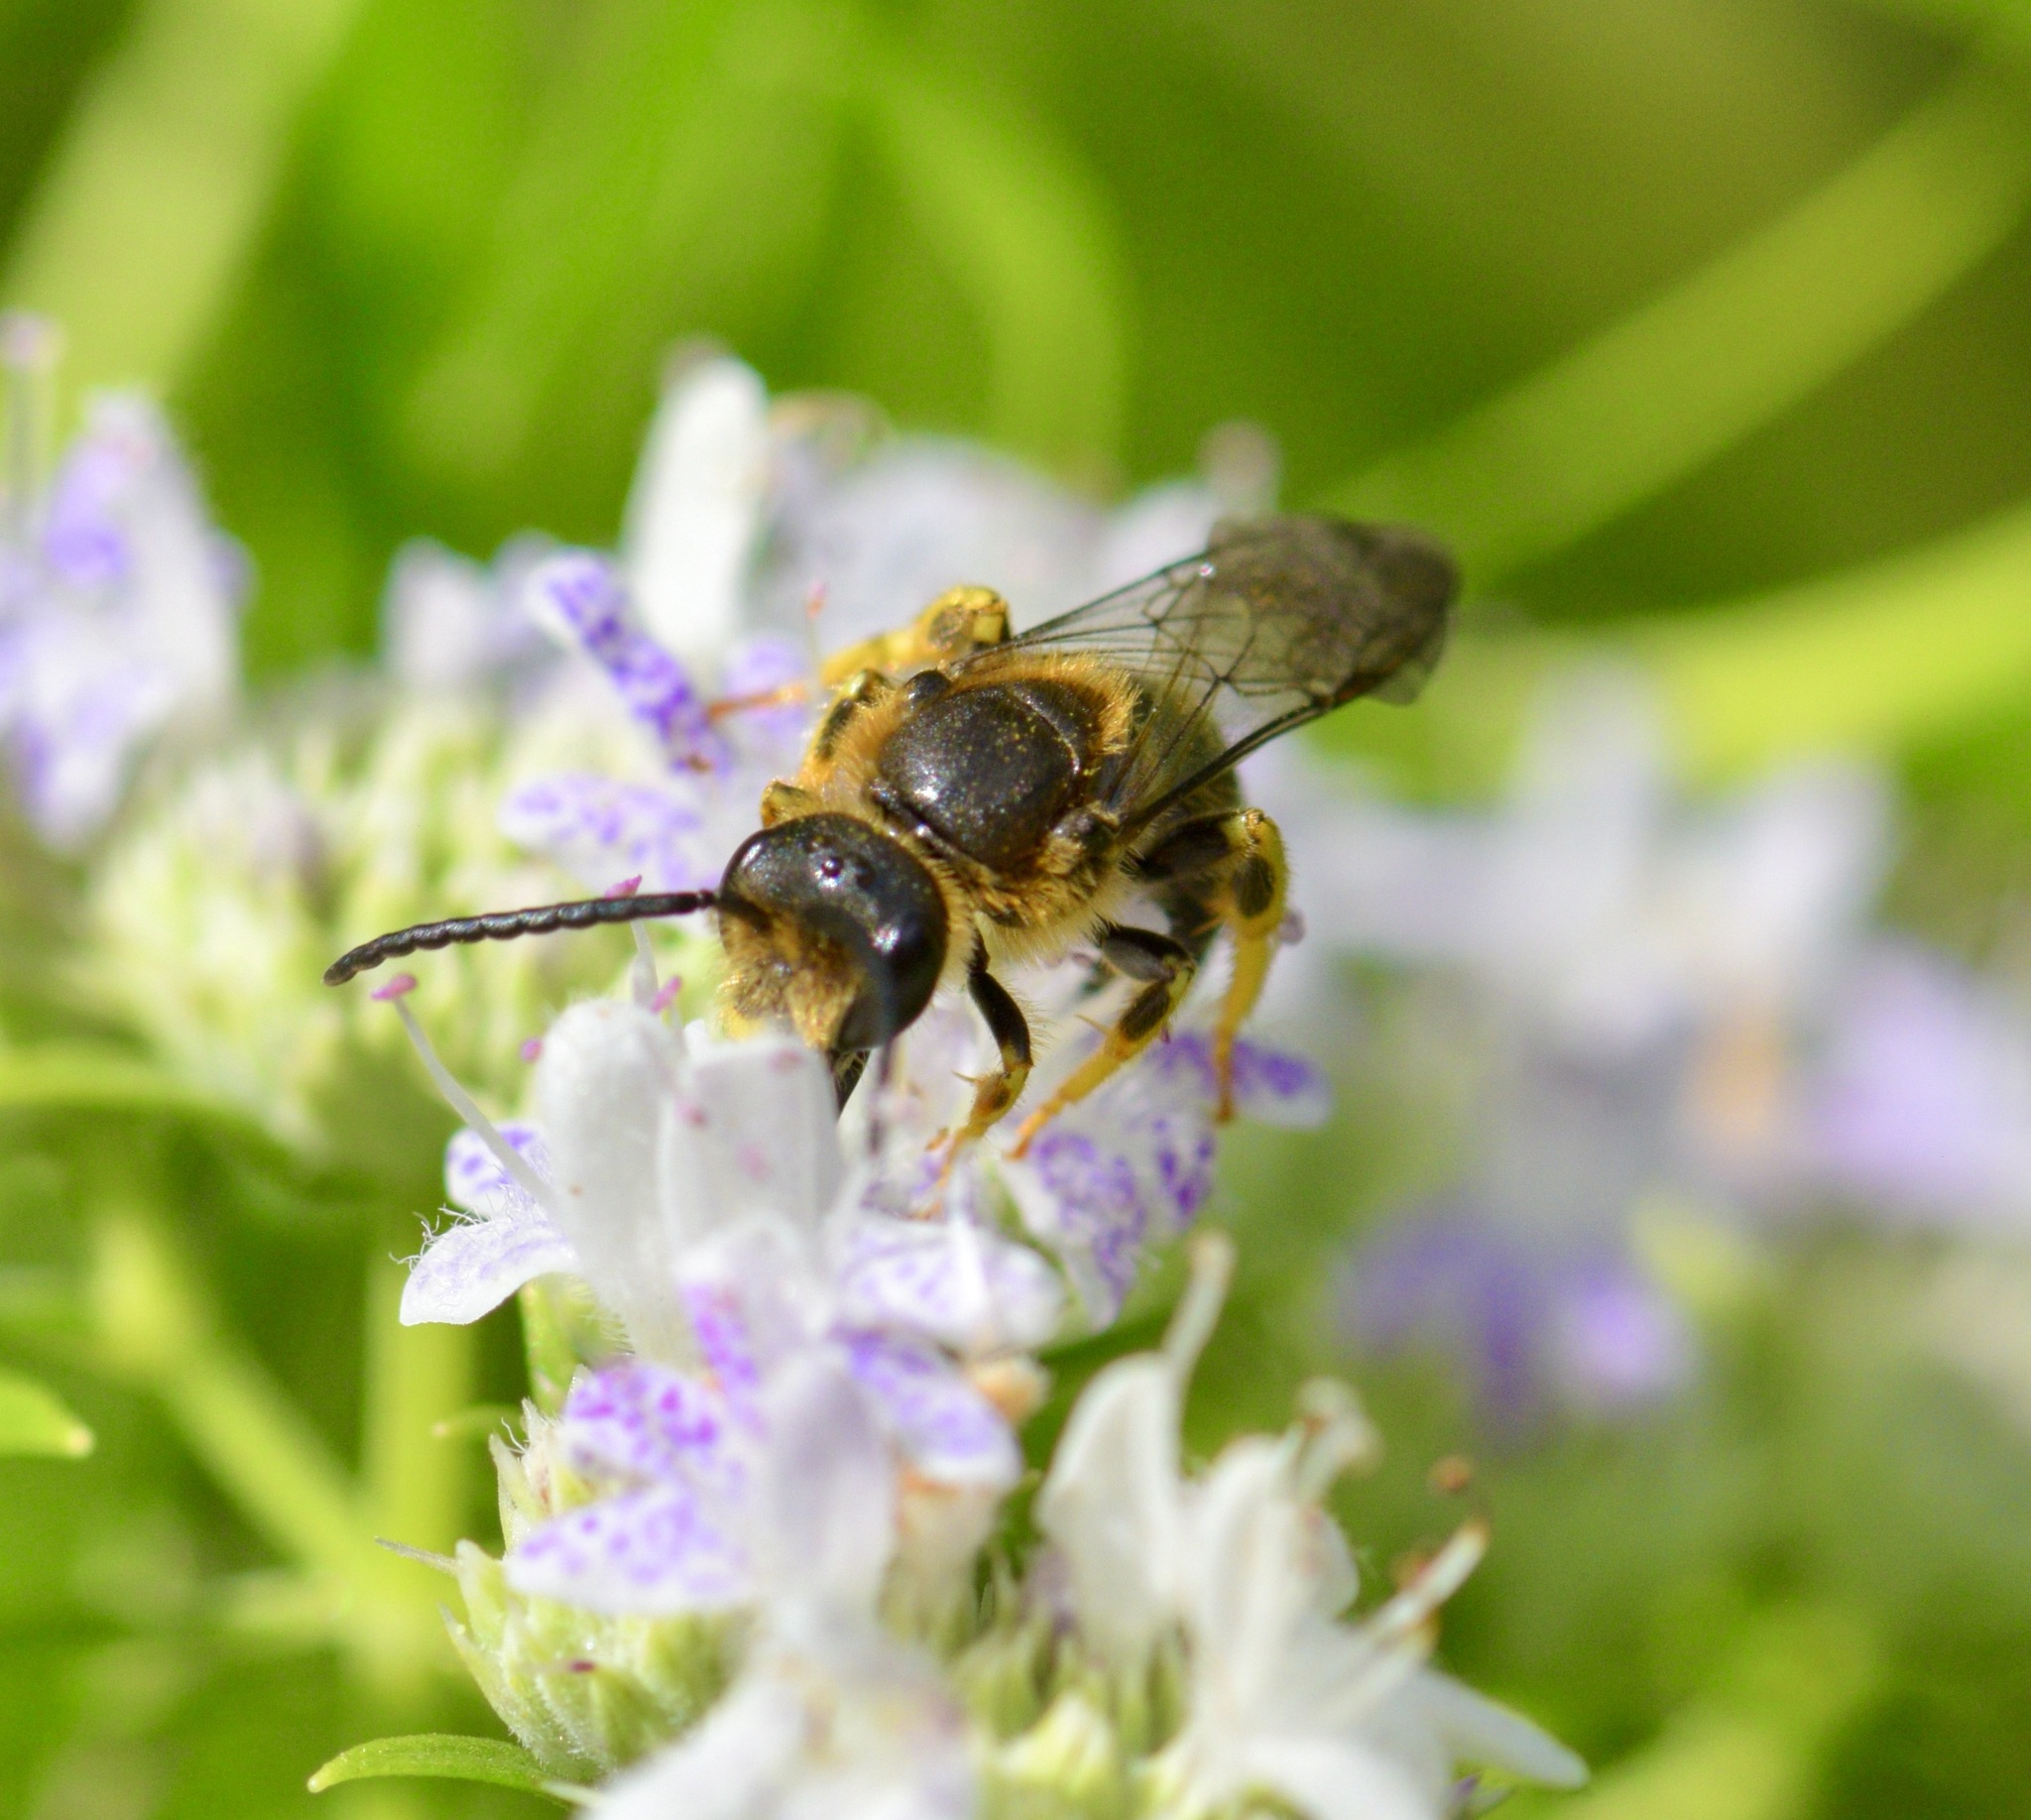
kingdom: Animalia
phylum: Arthropoda
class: Insecta
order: Hymenoptera
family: Halictidae
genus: Halictus
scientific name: Halictus rubicundus
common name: Orange-legged furrow bee
